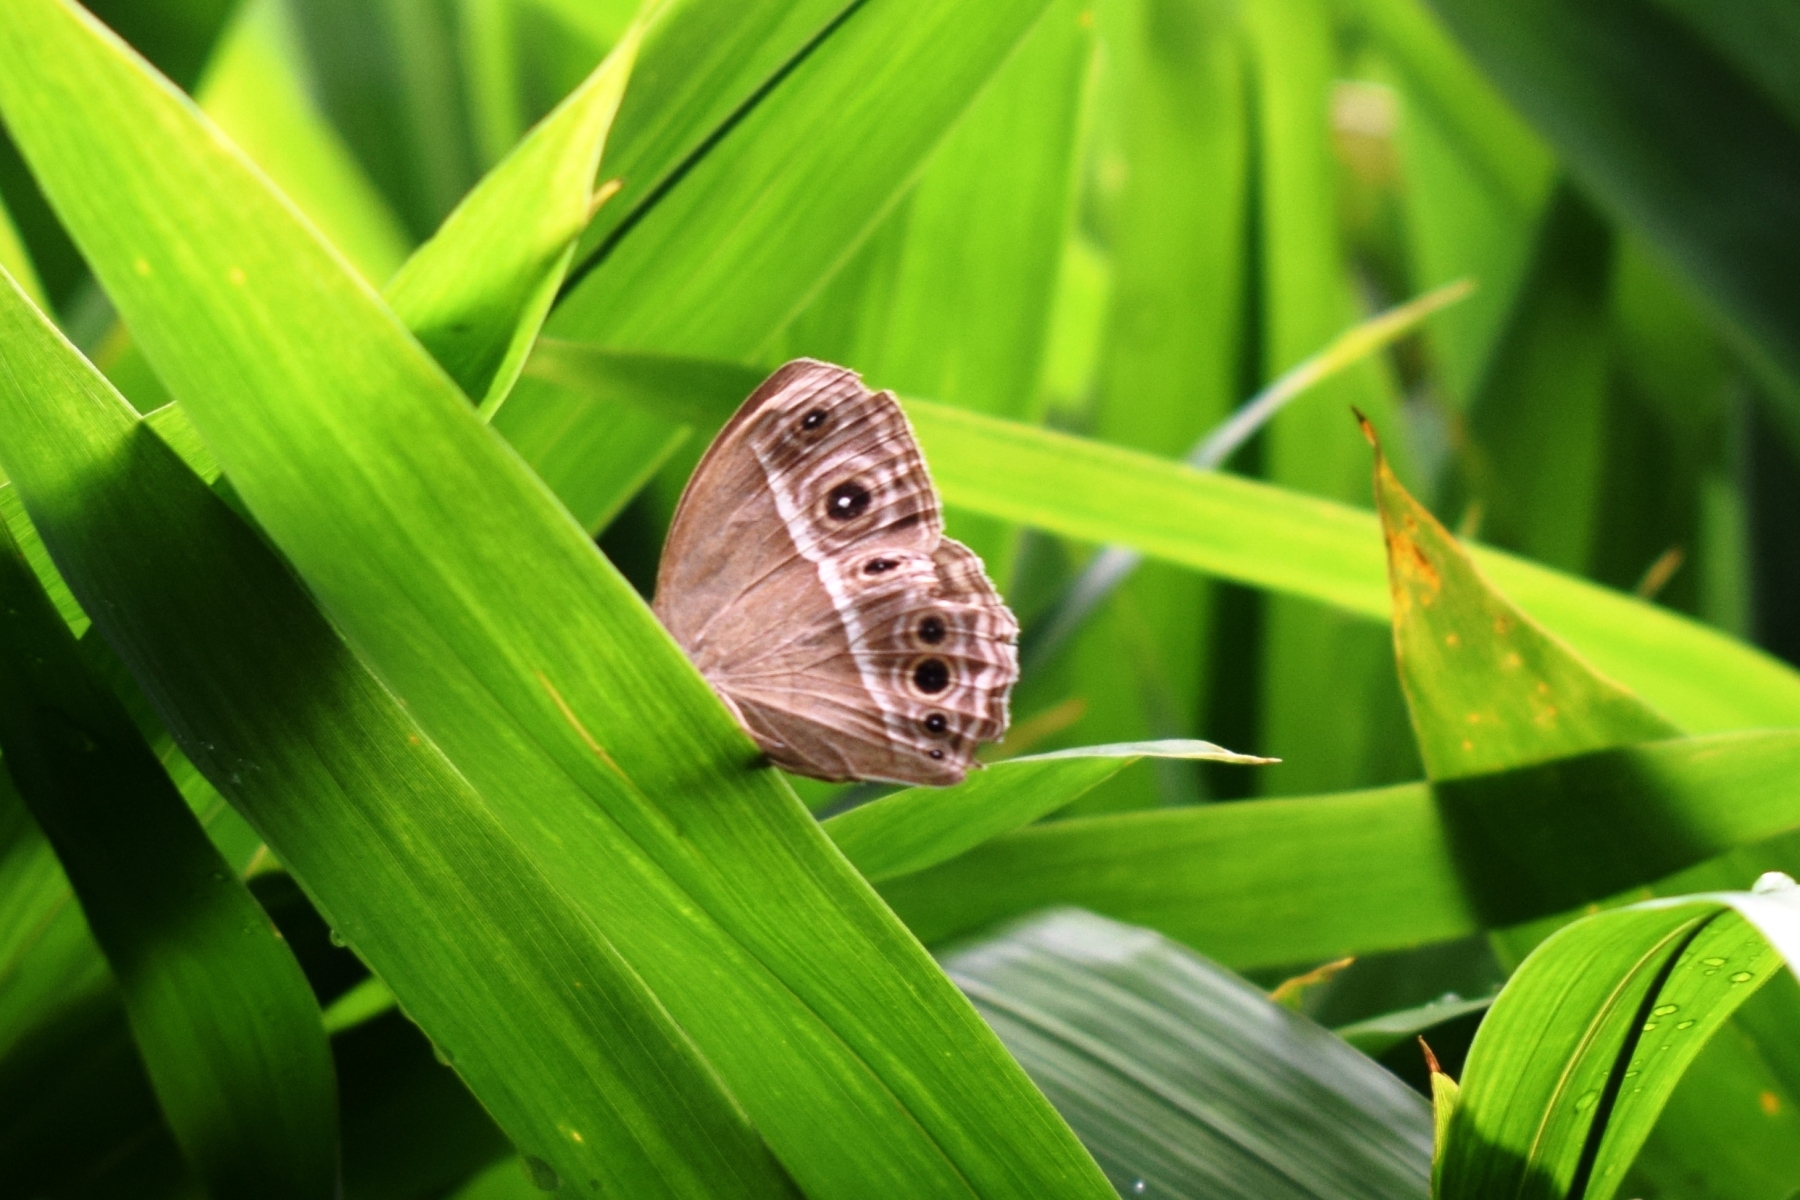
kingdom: Animalia
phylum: Arthropoda
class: Insecta
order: Lepidoptera
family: Nymphalidae
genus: Mycalesis
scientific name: Mycalesis mineus
